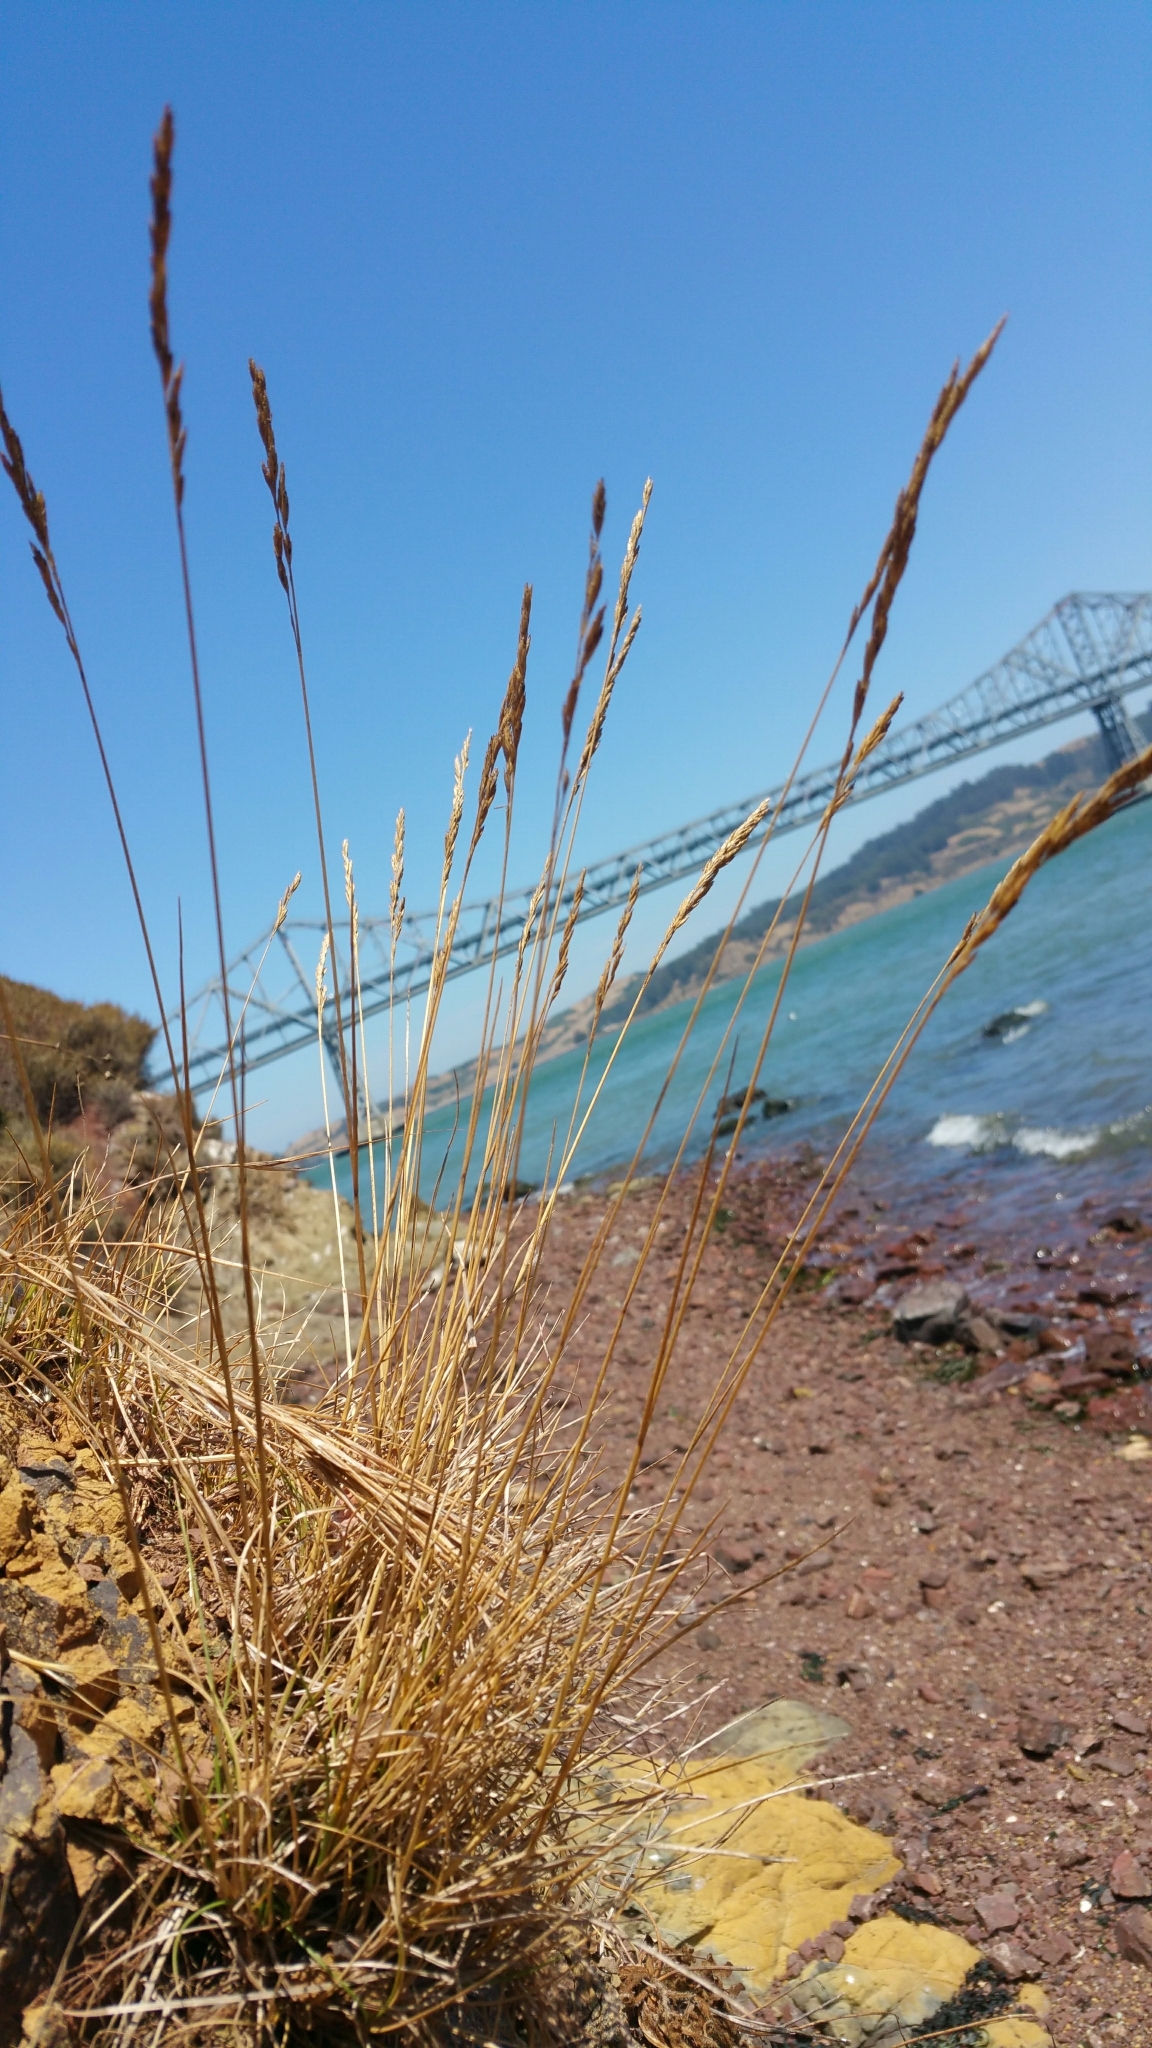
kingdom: Plantae
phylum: Tracheophyta
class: Liliopsida
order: Poales
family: Poaceae
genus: Festuca
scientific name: Festuca rubra
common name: Red fescue
